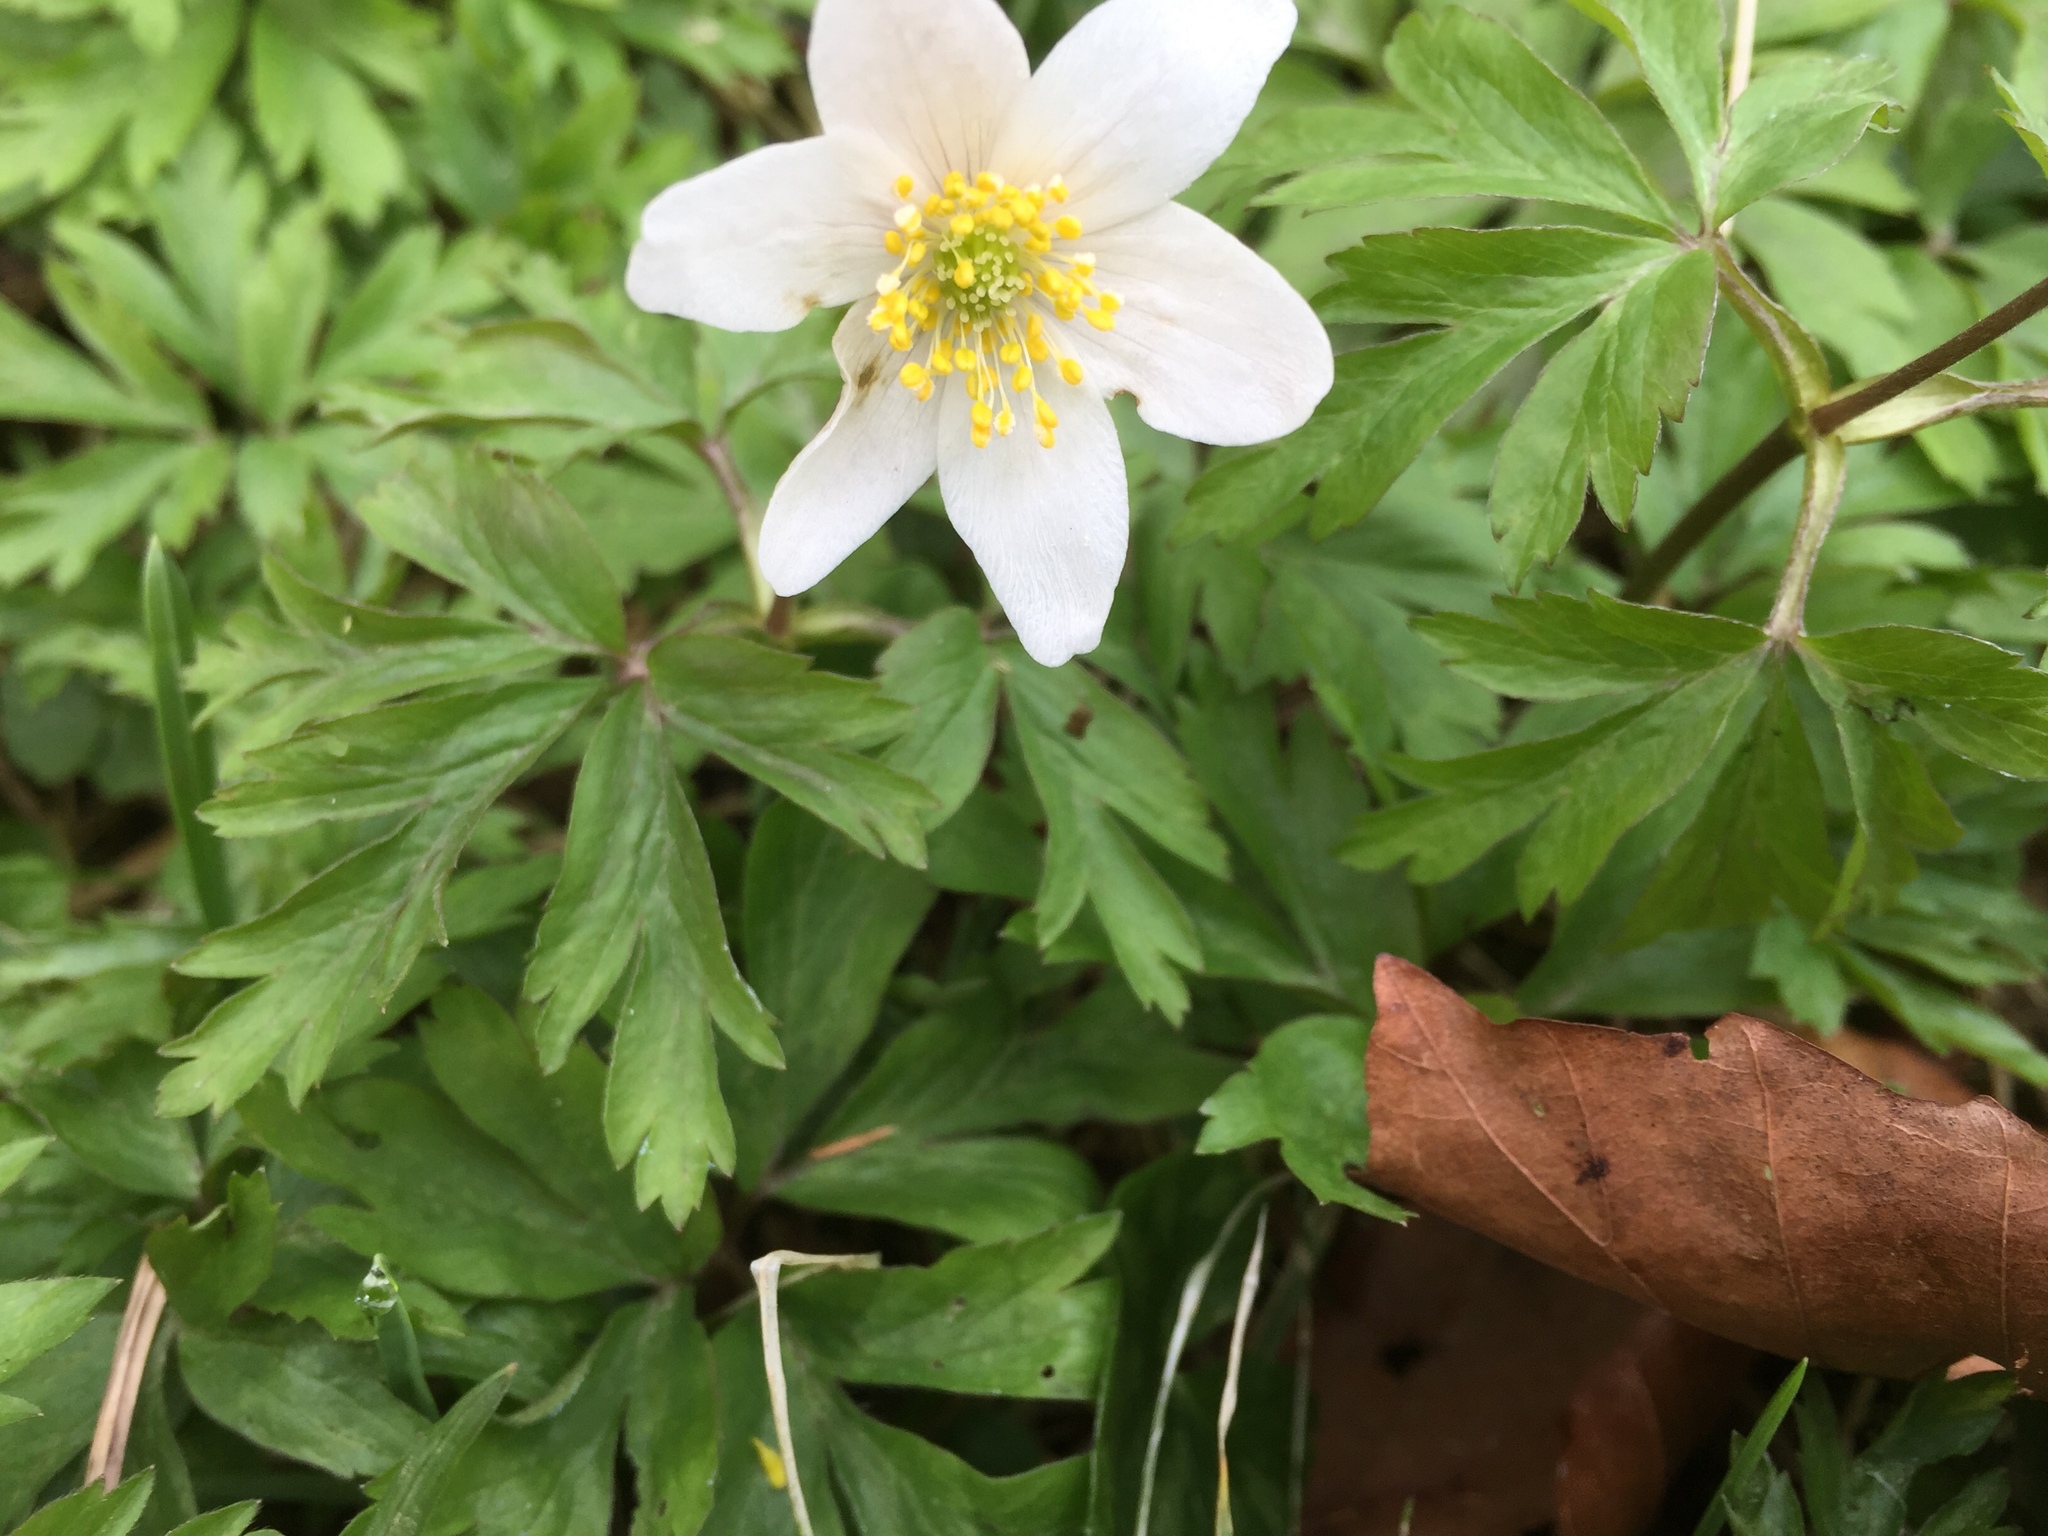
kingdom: Plantae
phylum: Tracheophyta
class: Magnoliopsida
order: Ranunculales
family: Ranunculaceae
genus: Anemone
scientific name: Anemone nemorosa
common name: Wood anemone
